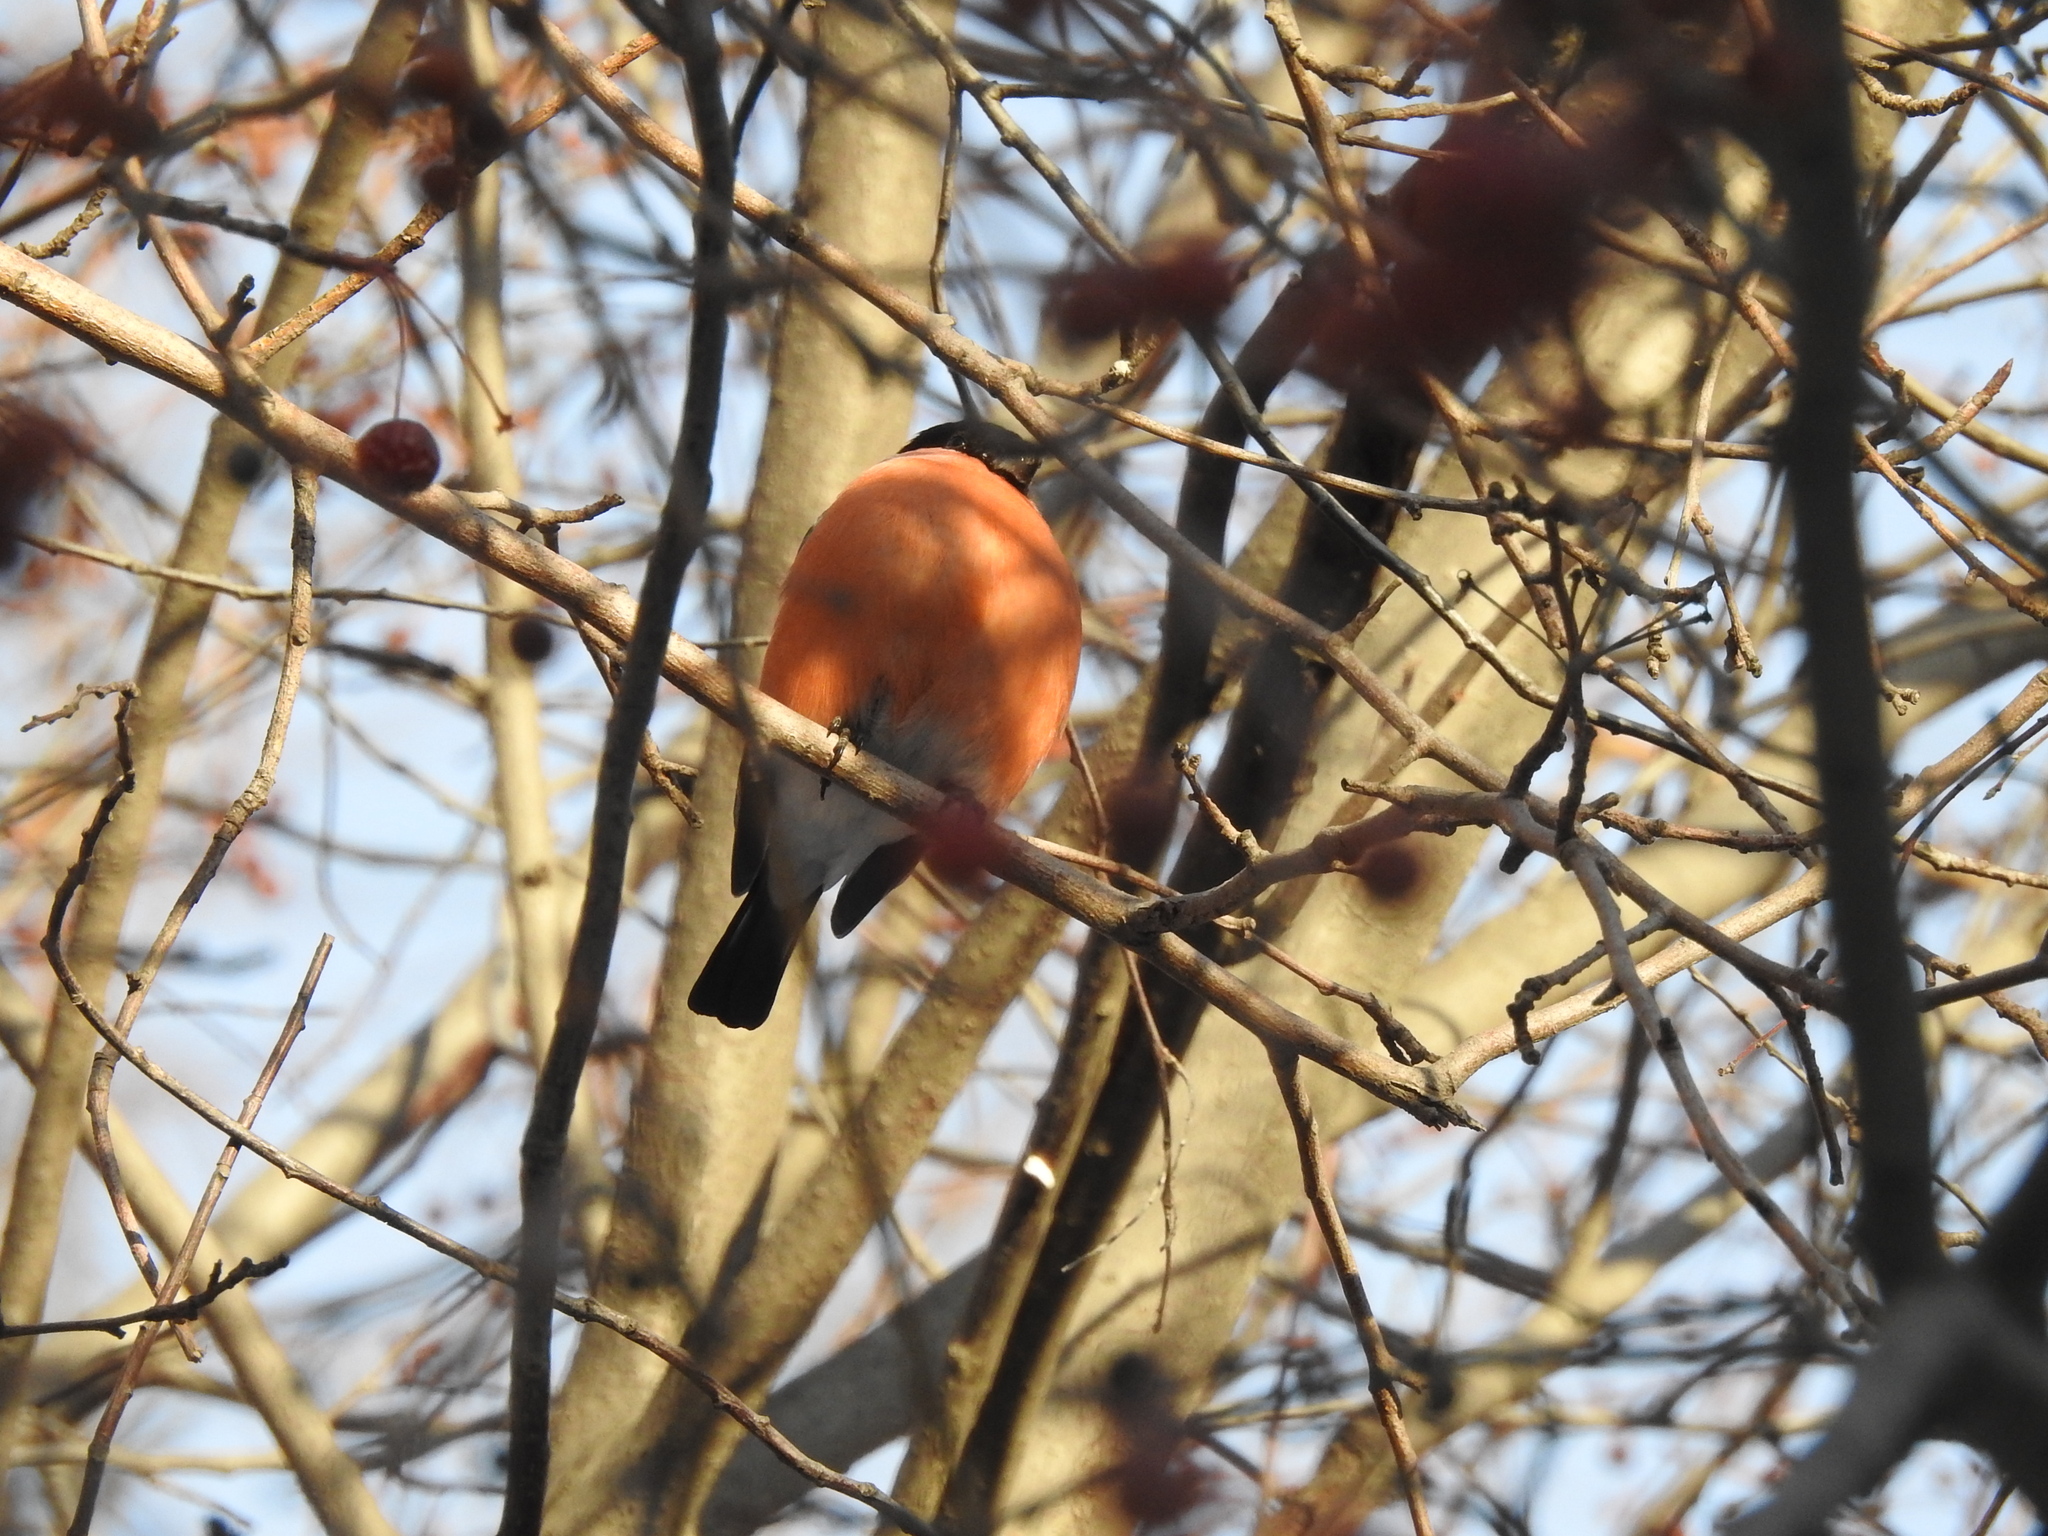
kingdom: Animalia
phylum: Chordata
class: Aves
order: Passeriformes
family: Fringillidae
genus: Pyrrhula
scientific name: Pyrrhula pyrrhula
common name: Eurasian bullfinch
